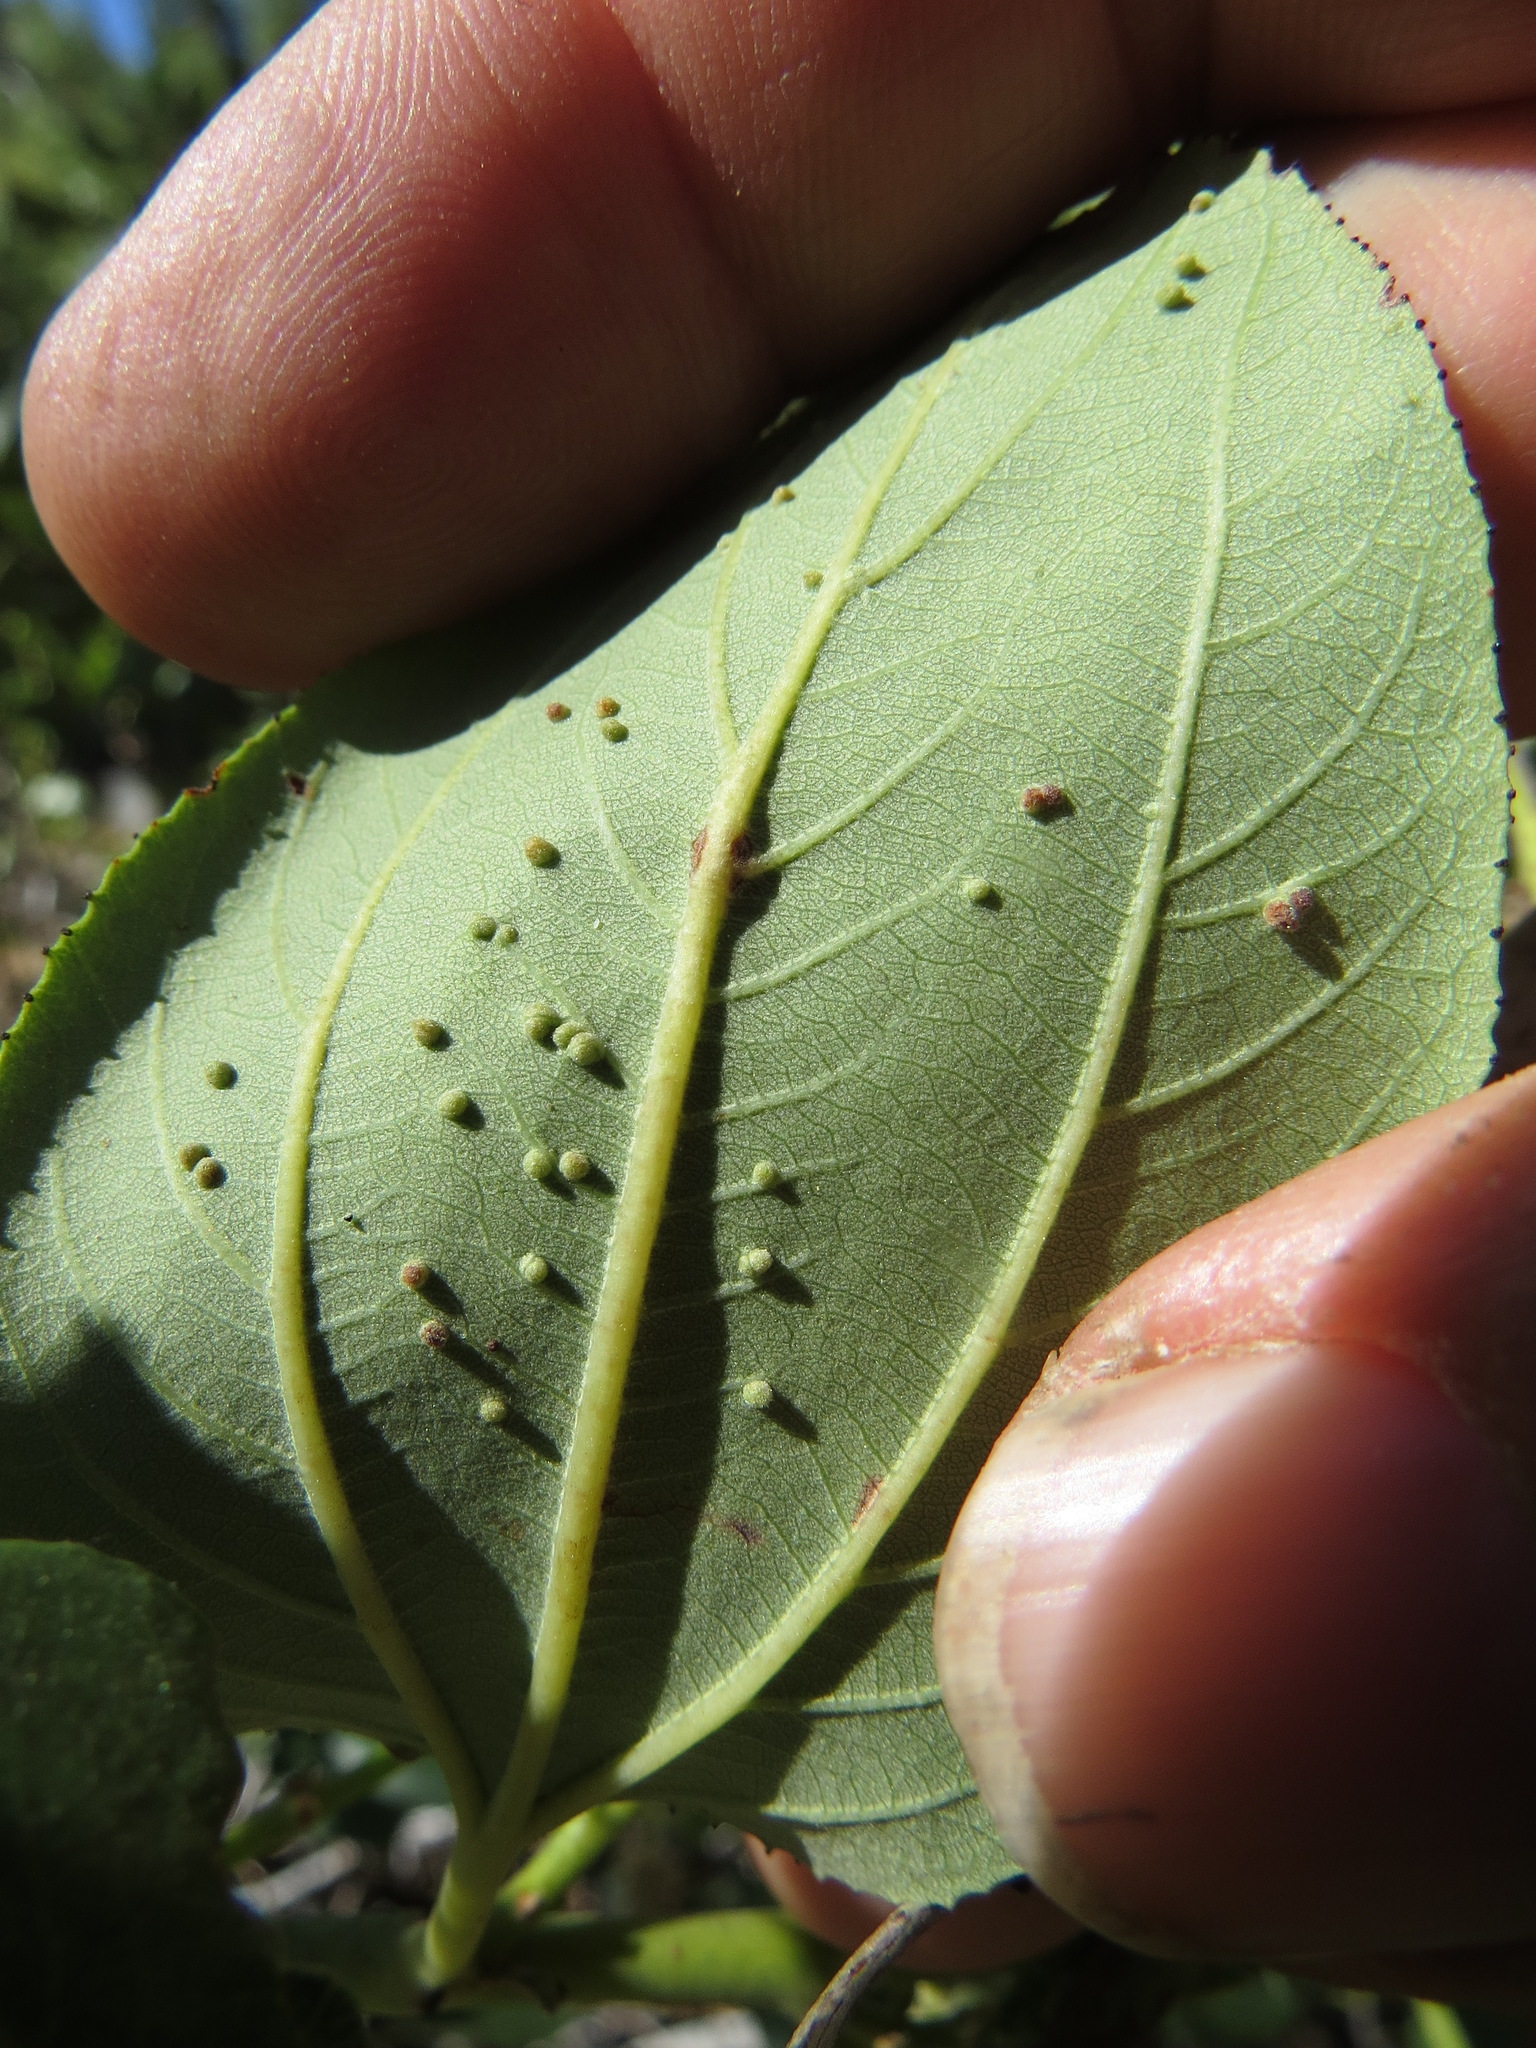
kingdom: Animalia
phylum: Arthropoda
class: Arachnida
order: Trombidiformes
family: Eriophyidae
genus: Aceria
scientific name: Aceria
